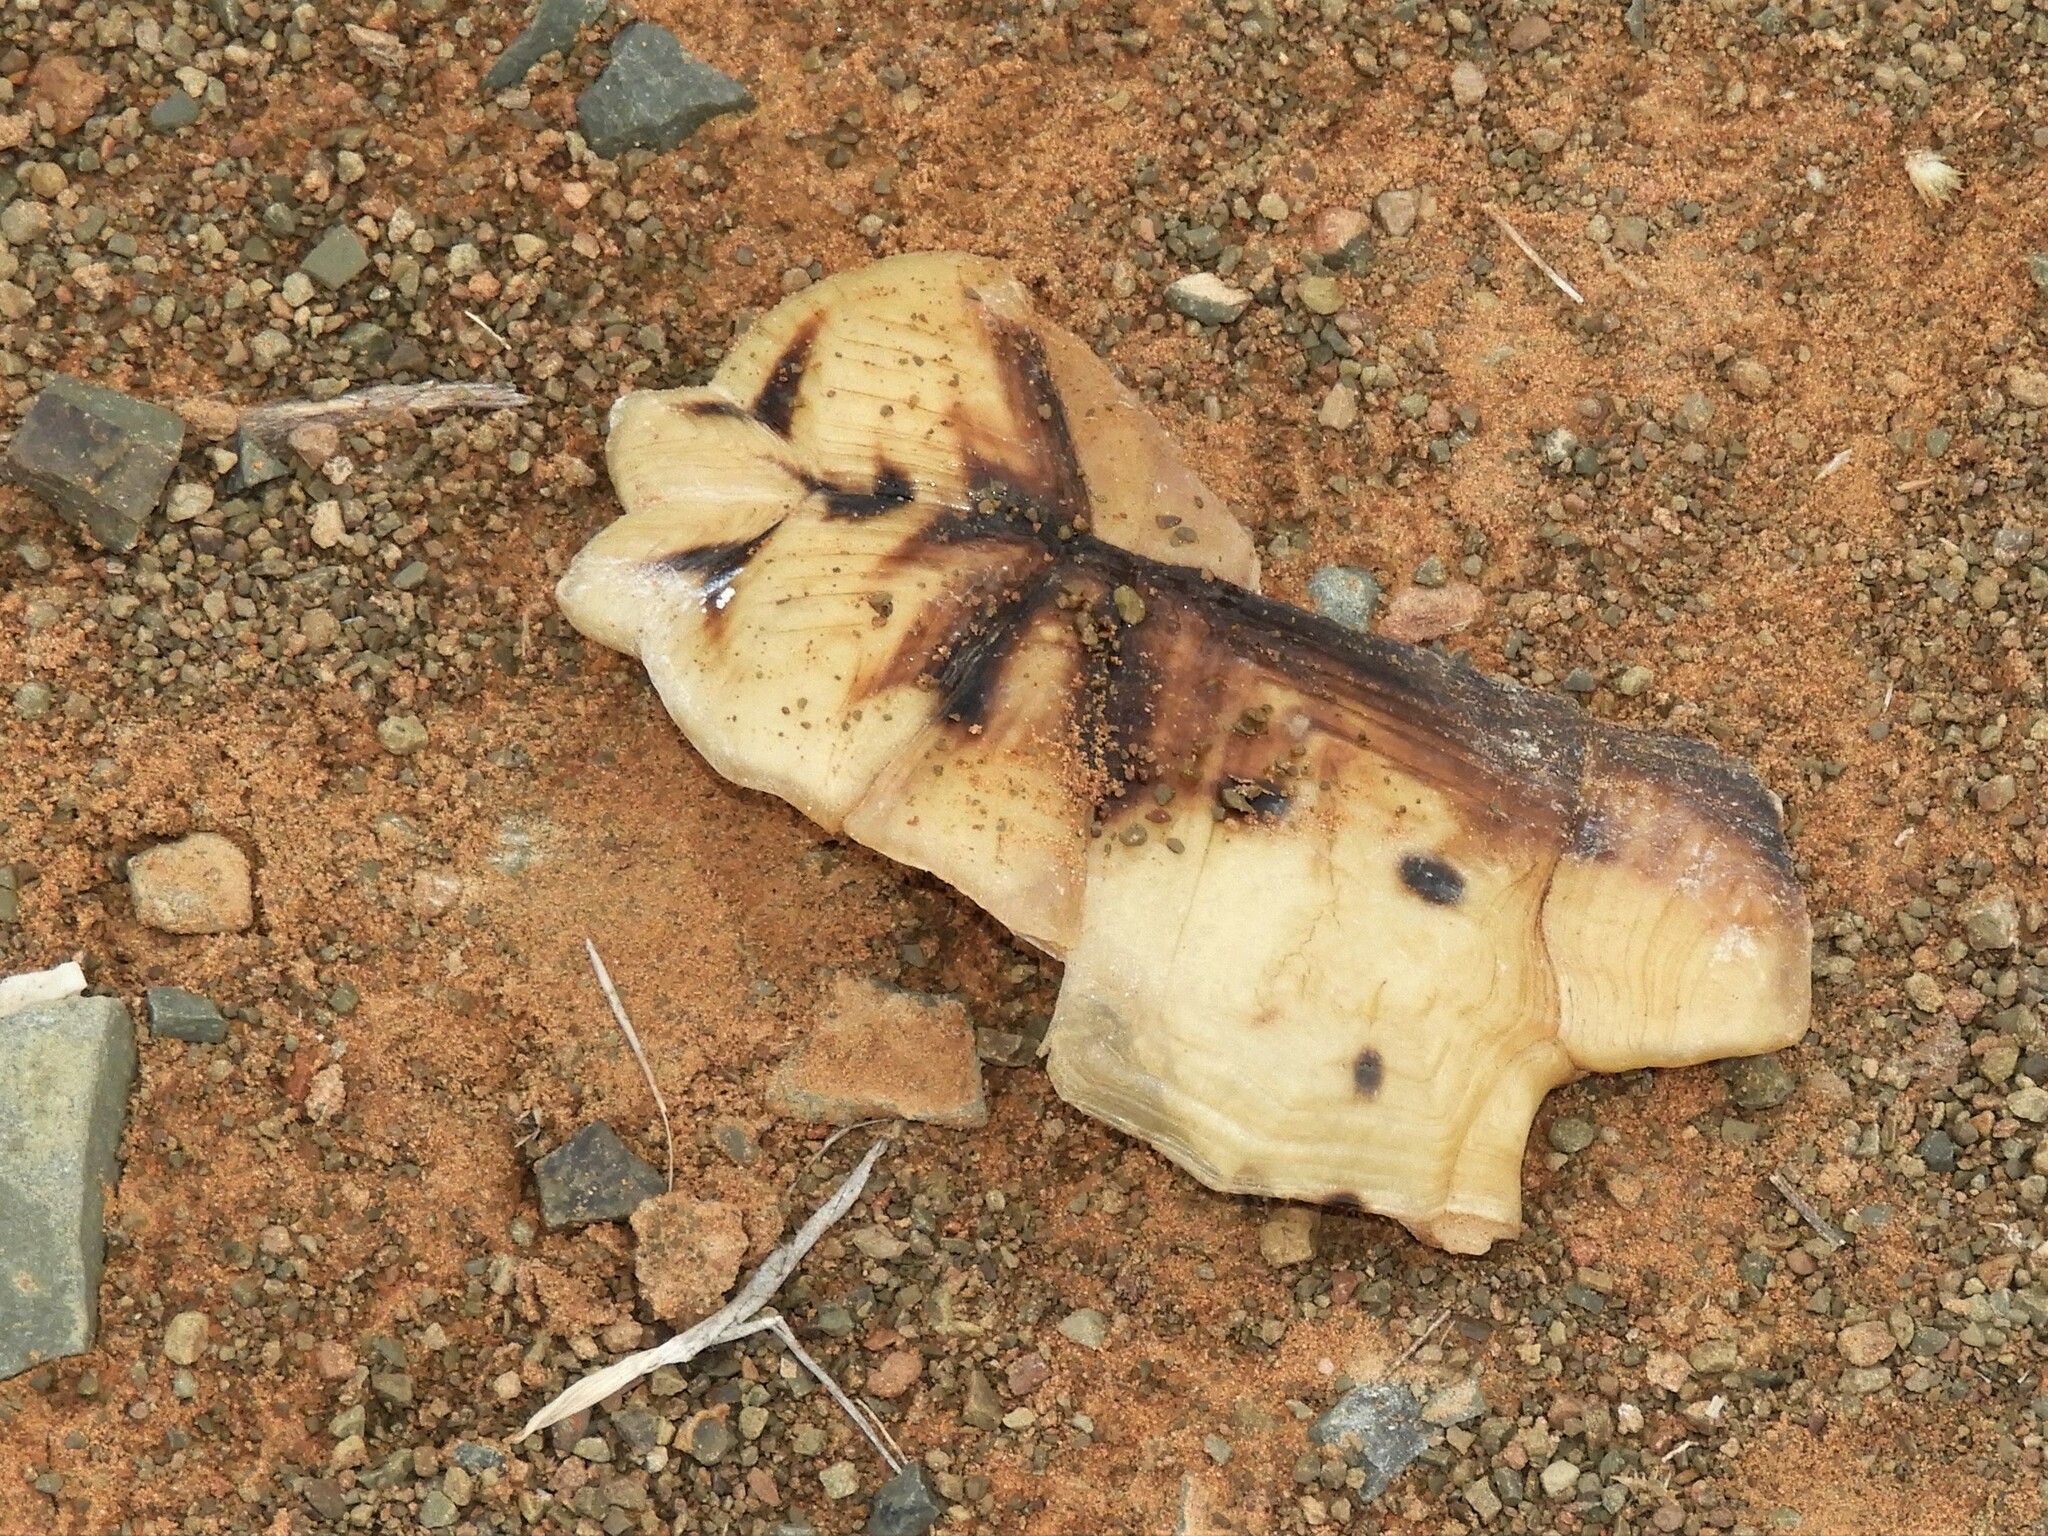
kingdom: Animalia
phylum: Chordata
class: Testudines
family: Testudinidae
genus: Psammobates
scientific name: Psammobates tentorius
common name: Tent tortoise
